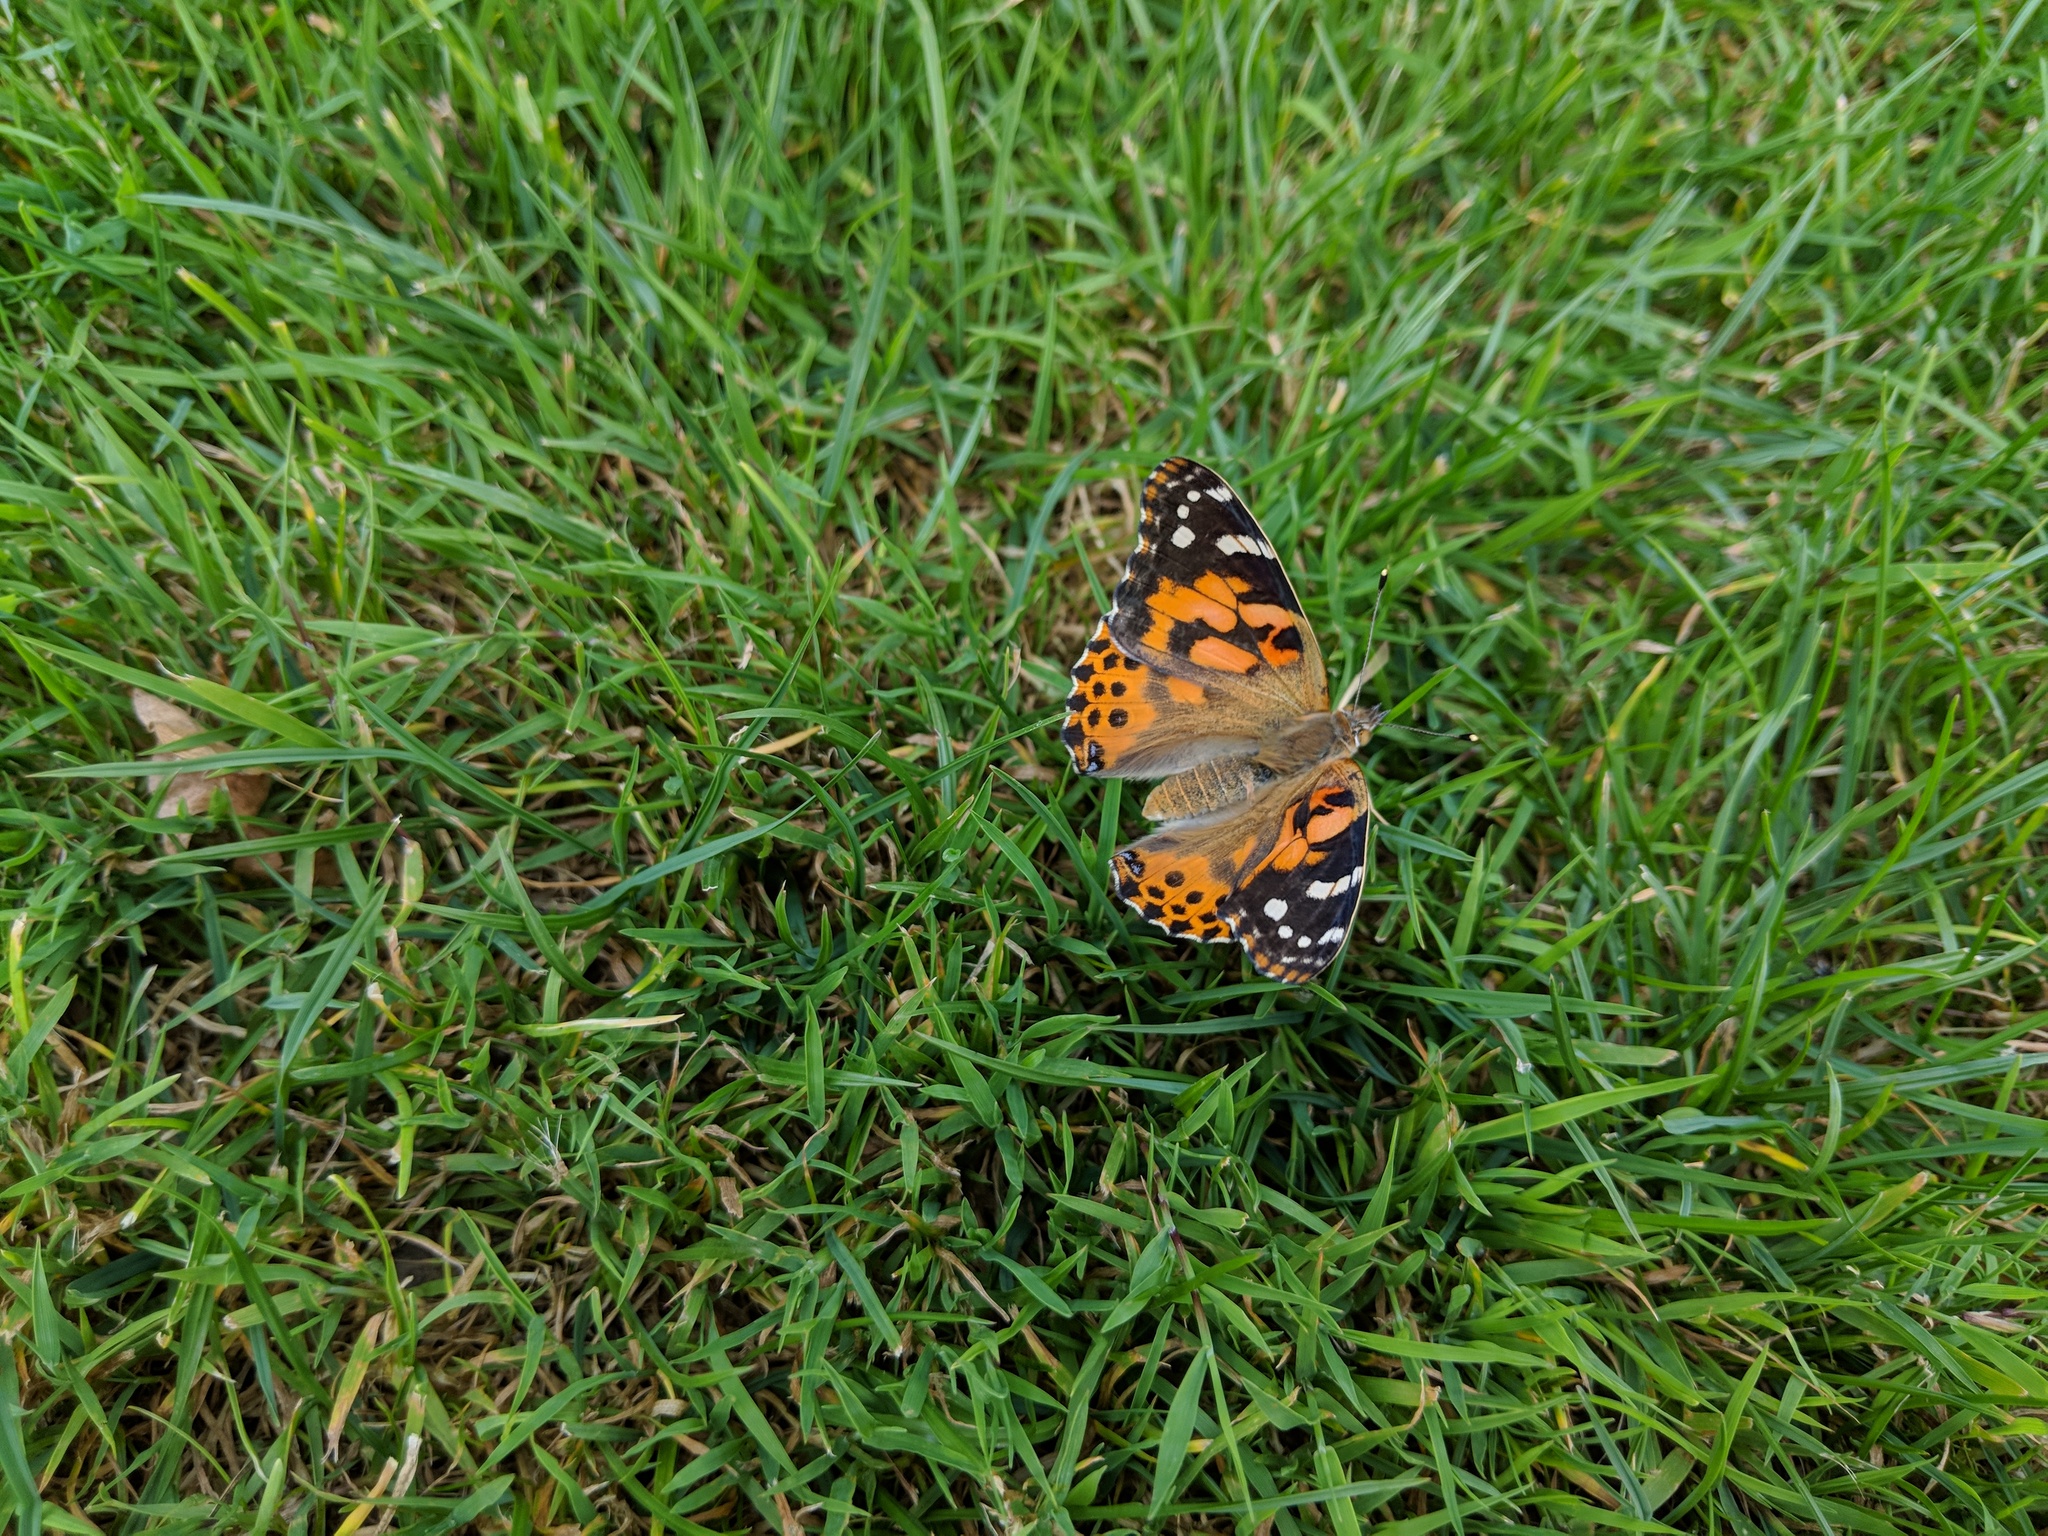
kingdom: Animalia
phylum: Arthropoda
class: Insecta
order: Lepidoptera
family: Nymphalidae
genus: Vanessa
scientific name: Vanessa cardui
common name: Painted lady
